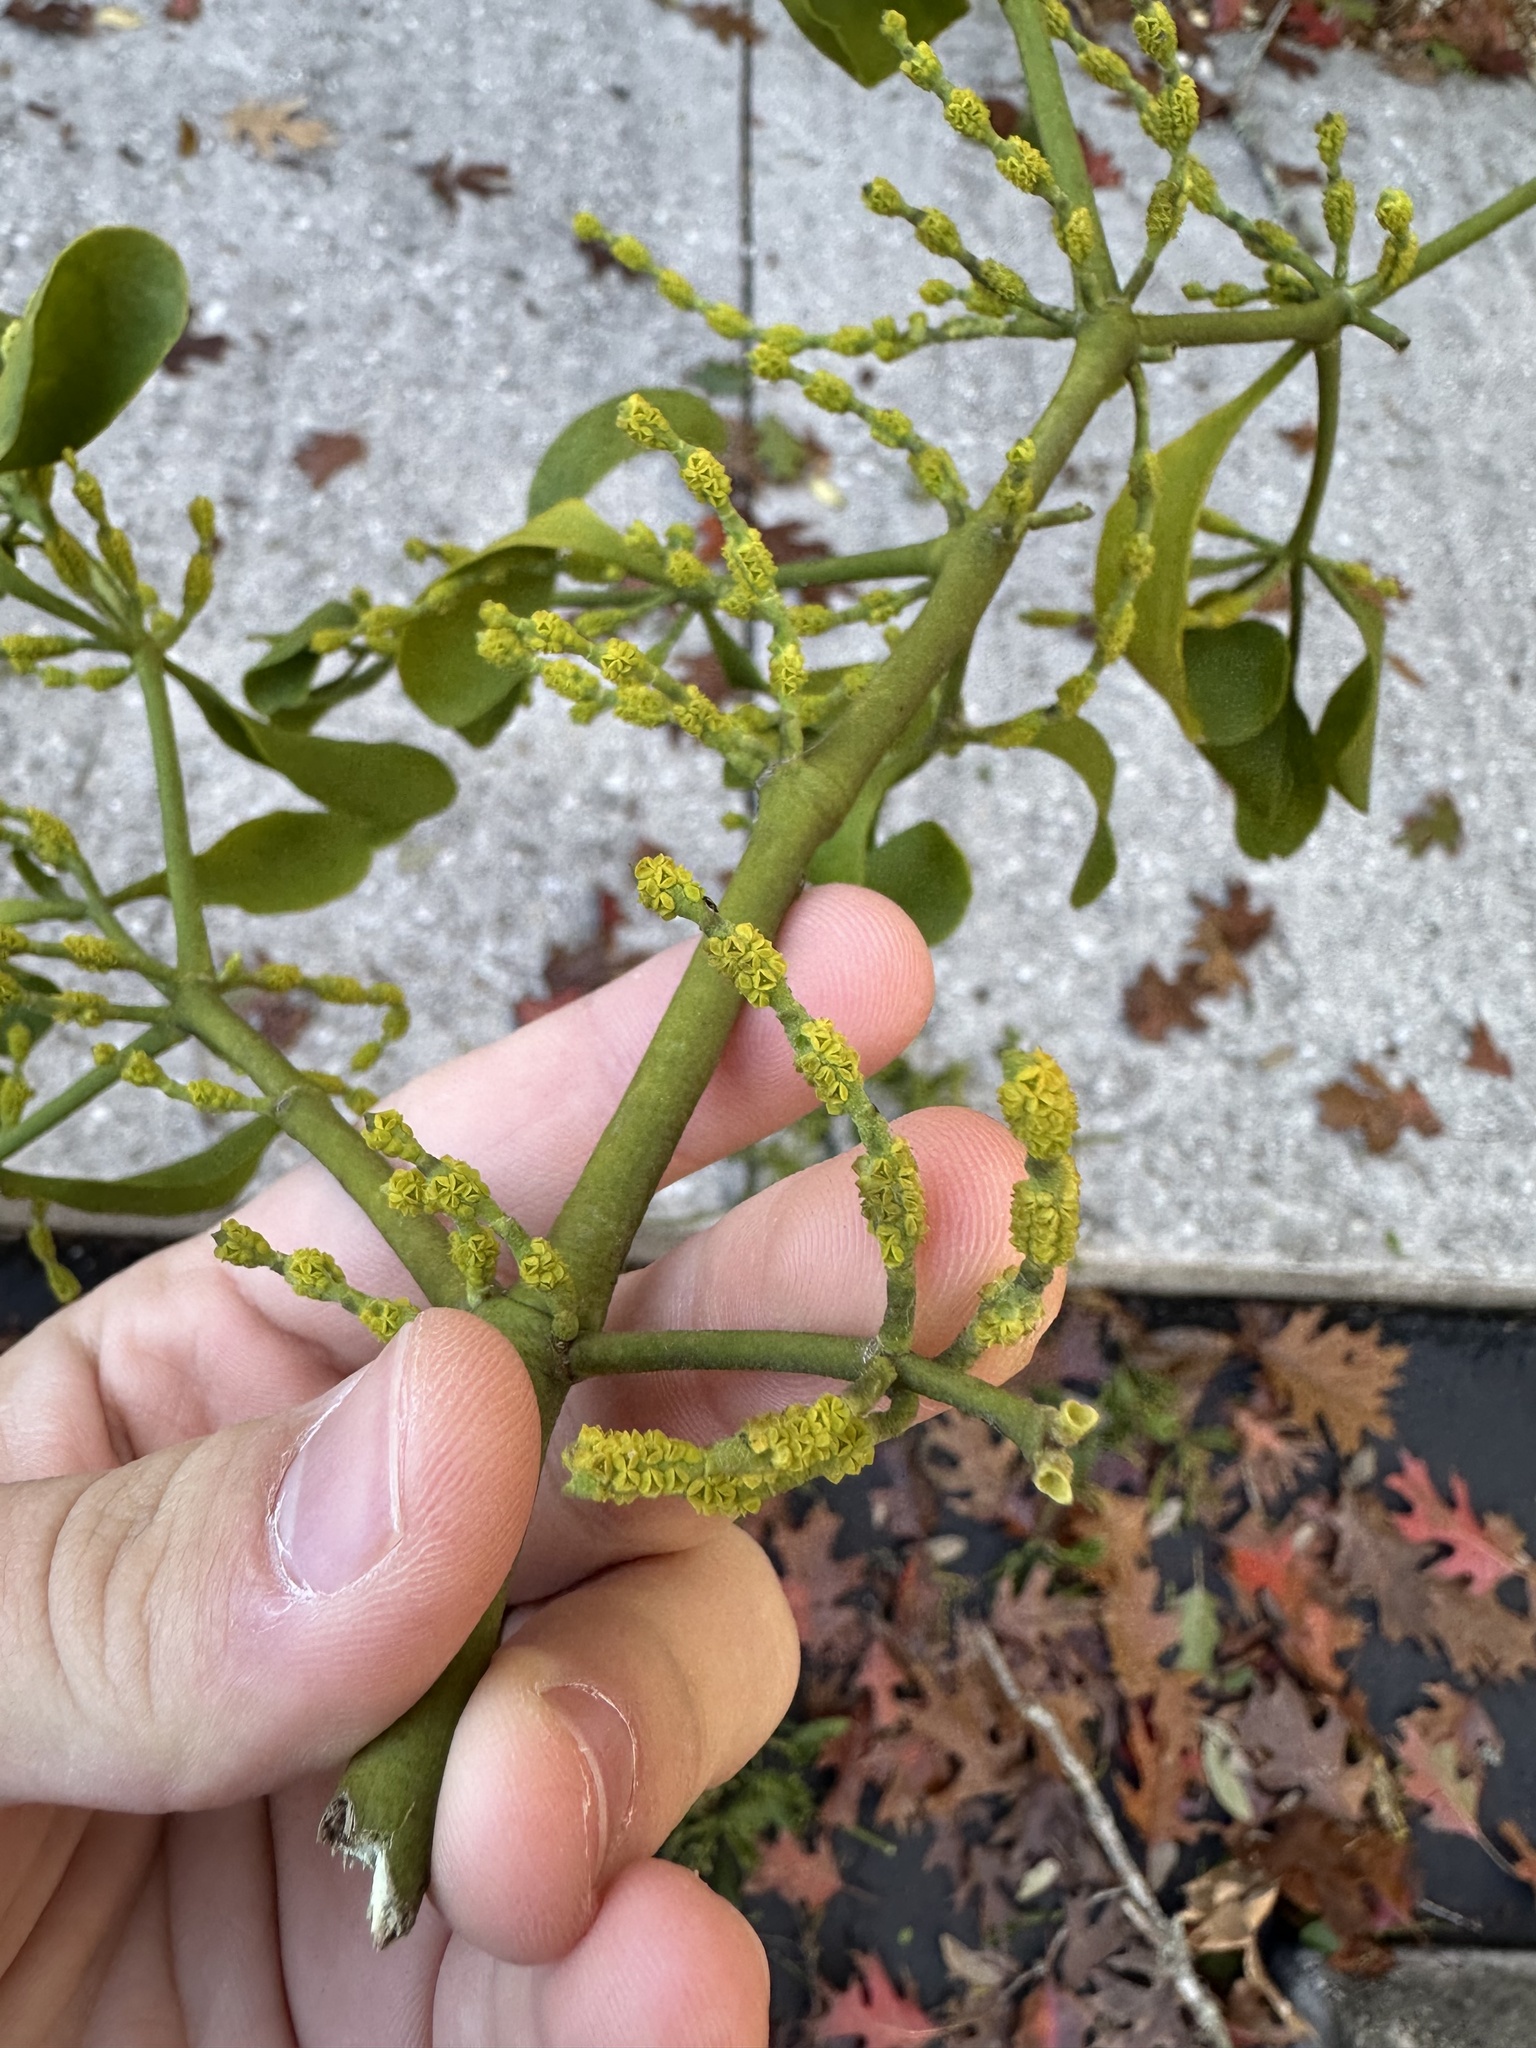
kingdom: Plantae
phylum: Tracheophyta
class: Magnoliopsida
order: Santalales
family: Viscaceae
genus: Phoradendron
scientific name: Phoradendron leucarpum
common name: Pacific mistletoe
